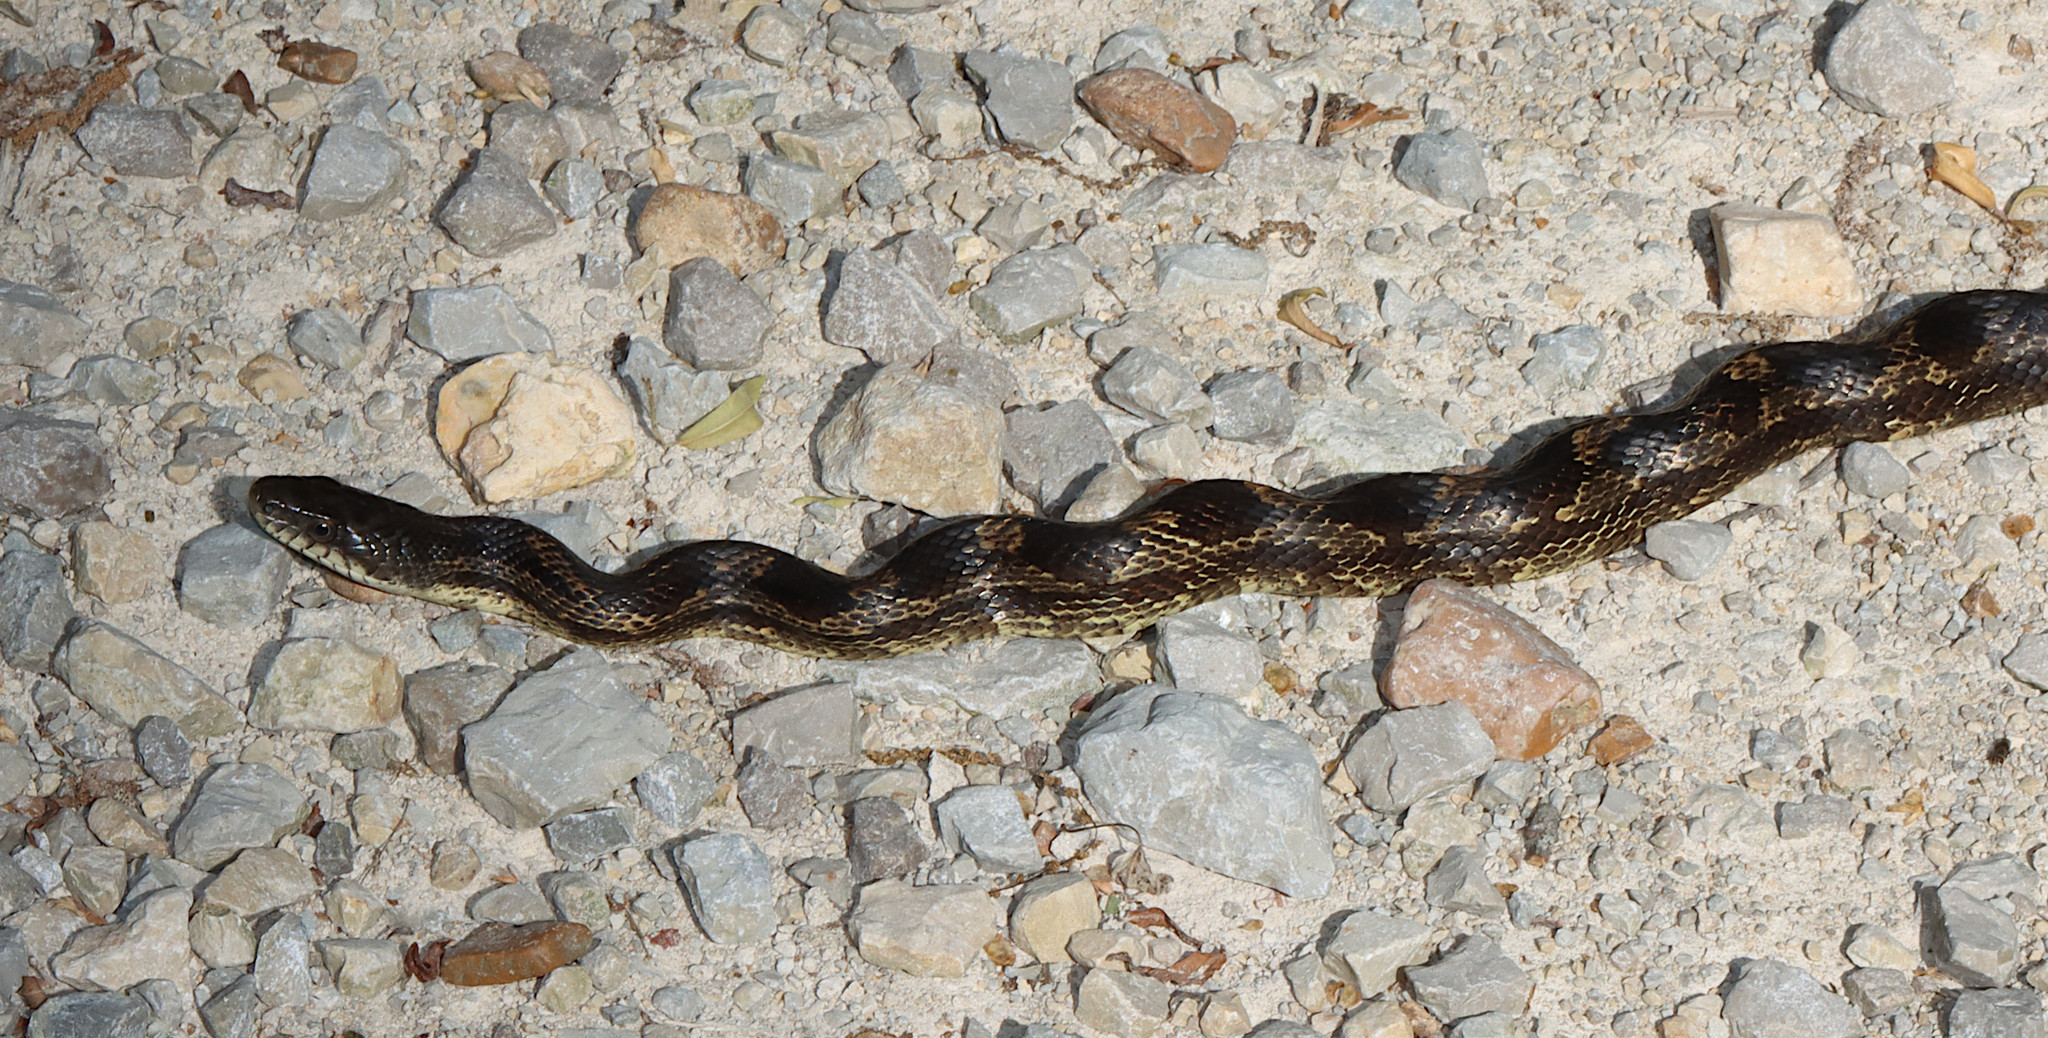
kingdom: Animalia
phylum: Chordata
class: Squamata
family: Colubridae
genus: Pantherophis
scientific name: Pantherophis obsoletus
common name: Black rat snake
